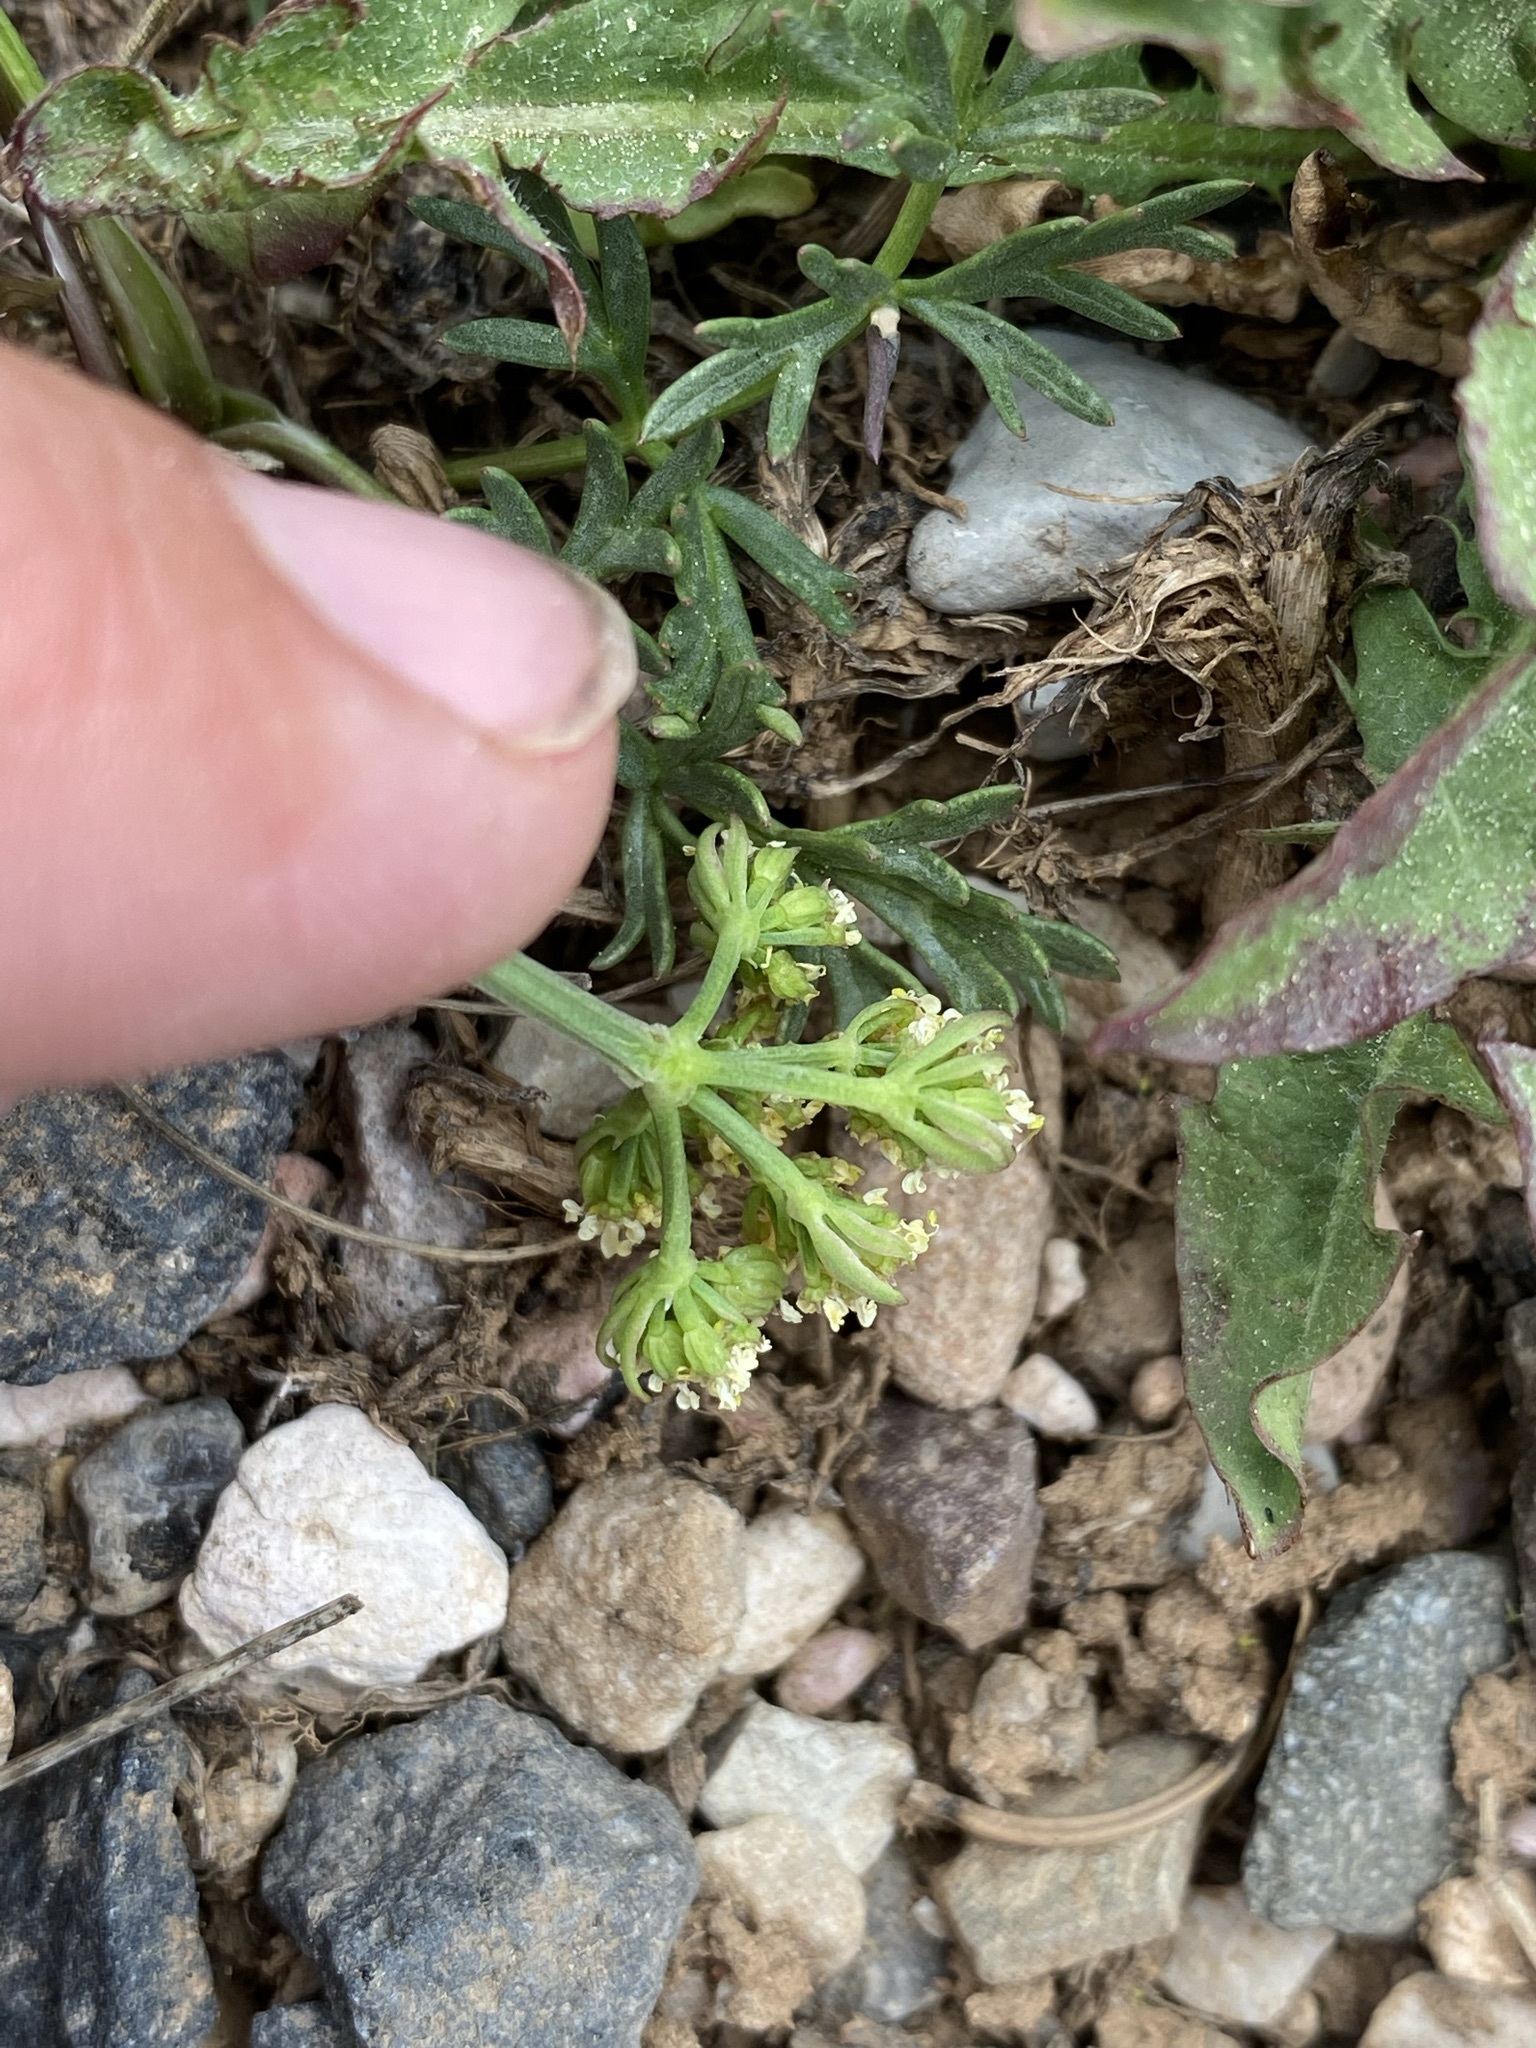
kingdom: Plantae
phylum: Tracheophyta
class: Magnoliopsida
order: Apiales
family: Apiaceae
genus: Cymopterus
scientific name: Cymopterus lemmonii
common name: Lemmon's spring-parsley
